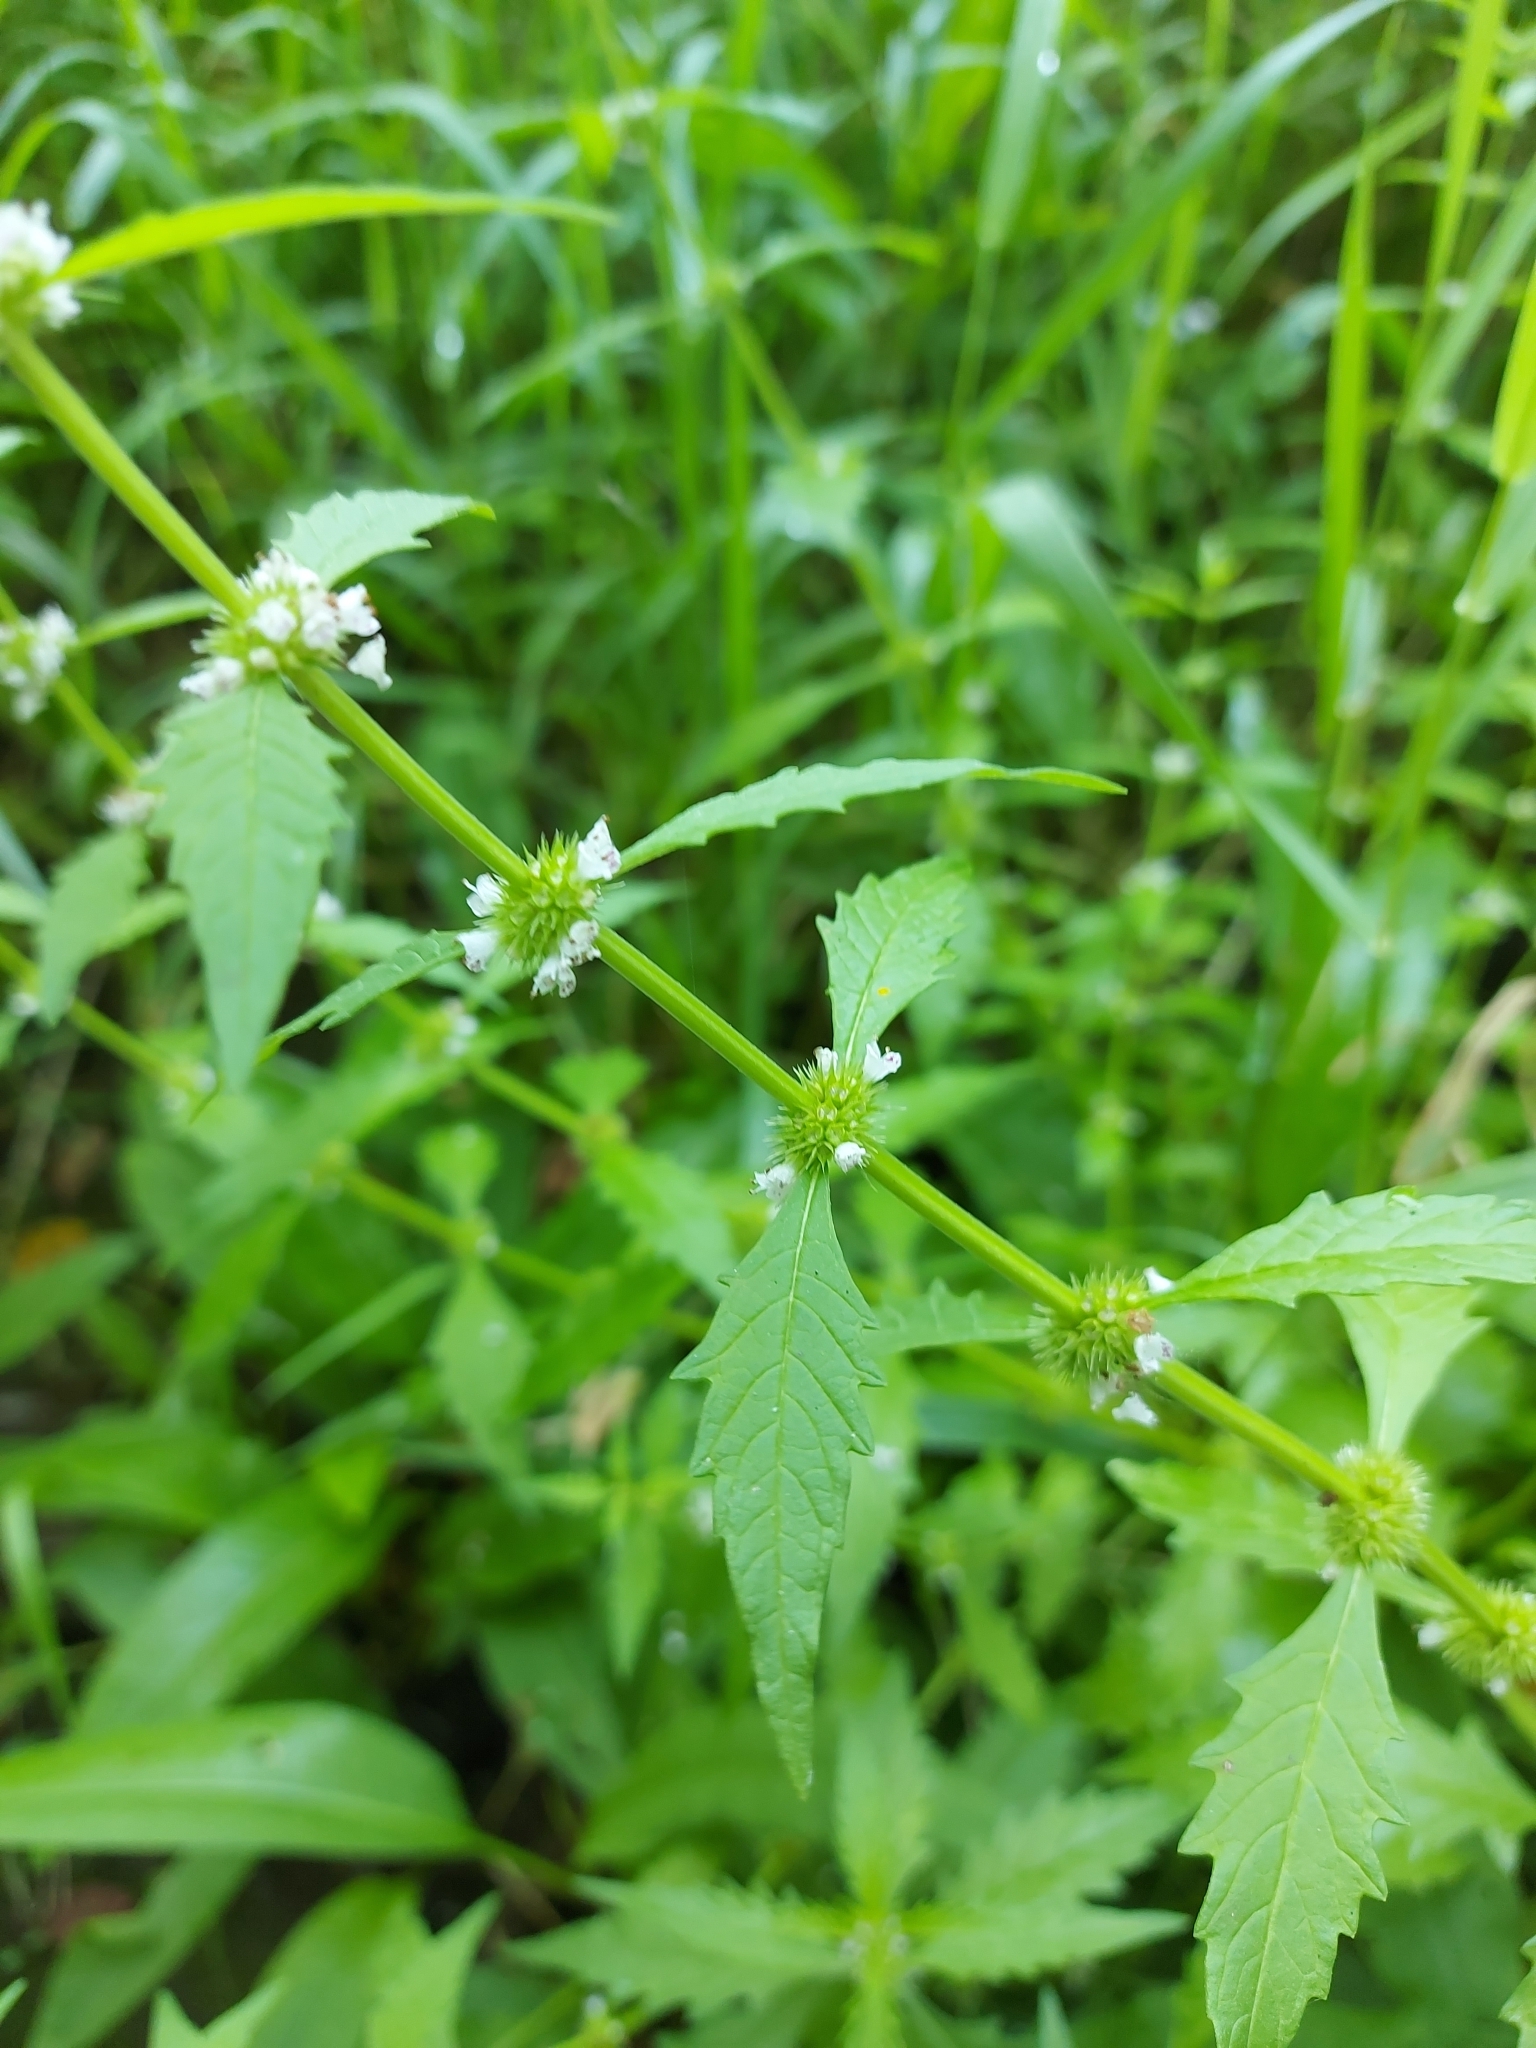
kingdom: Plantae
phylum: Tracheophyta
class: Magnoliopsida
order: Lamiales
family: Lamiaceae
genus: Lycopus
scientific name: Lycopus americanus
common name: American bugleweed
